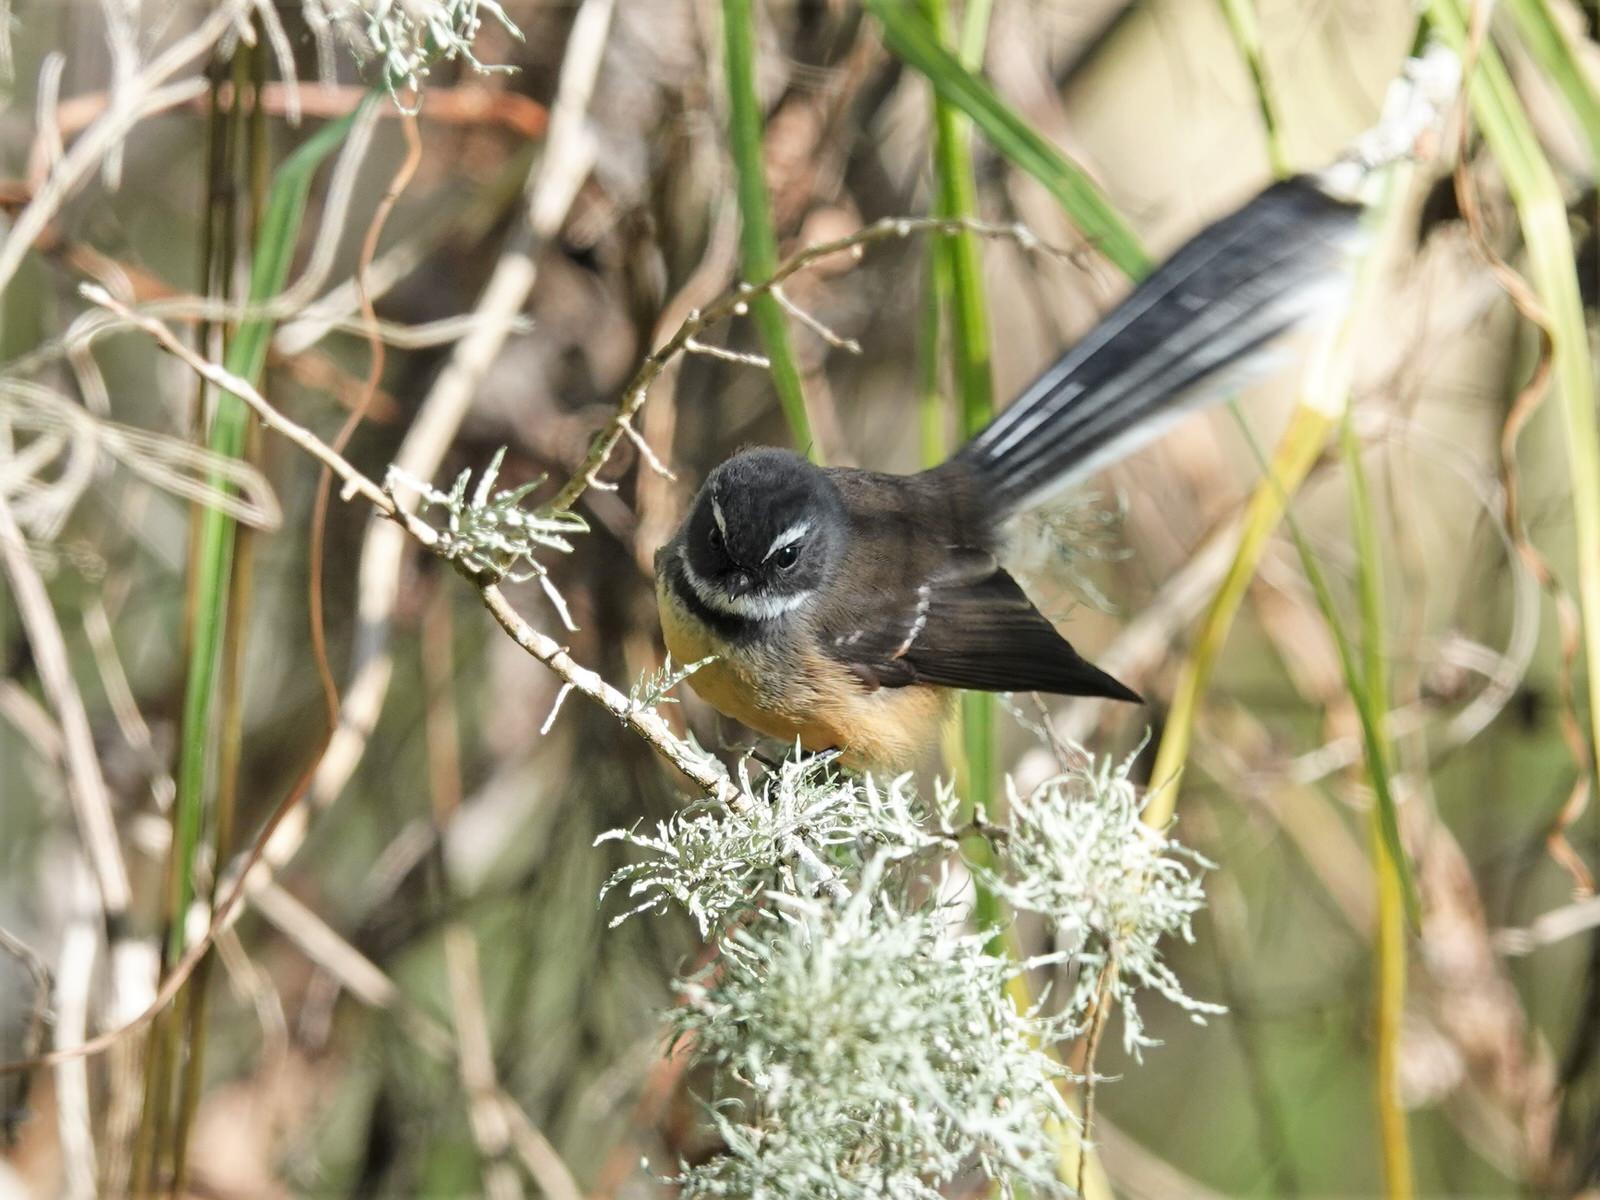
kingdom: Animalia
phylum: Chordata
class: Aves
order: Passeriformes
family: Rhipiduridae
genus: Rhipidura
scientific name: Rhipidura fuliginosa
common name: New zealand fantail
